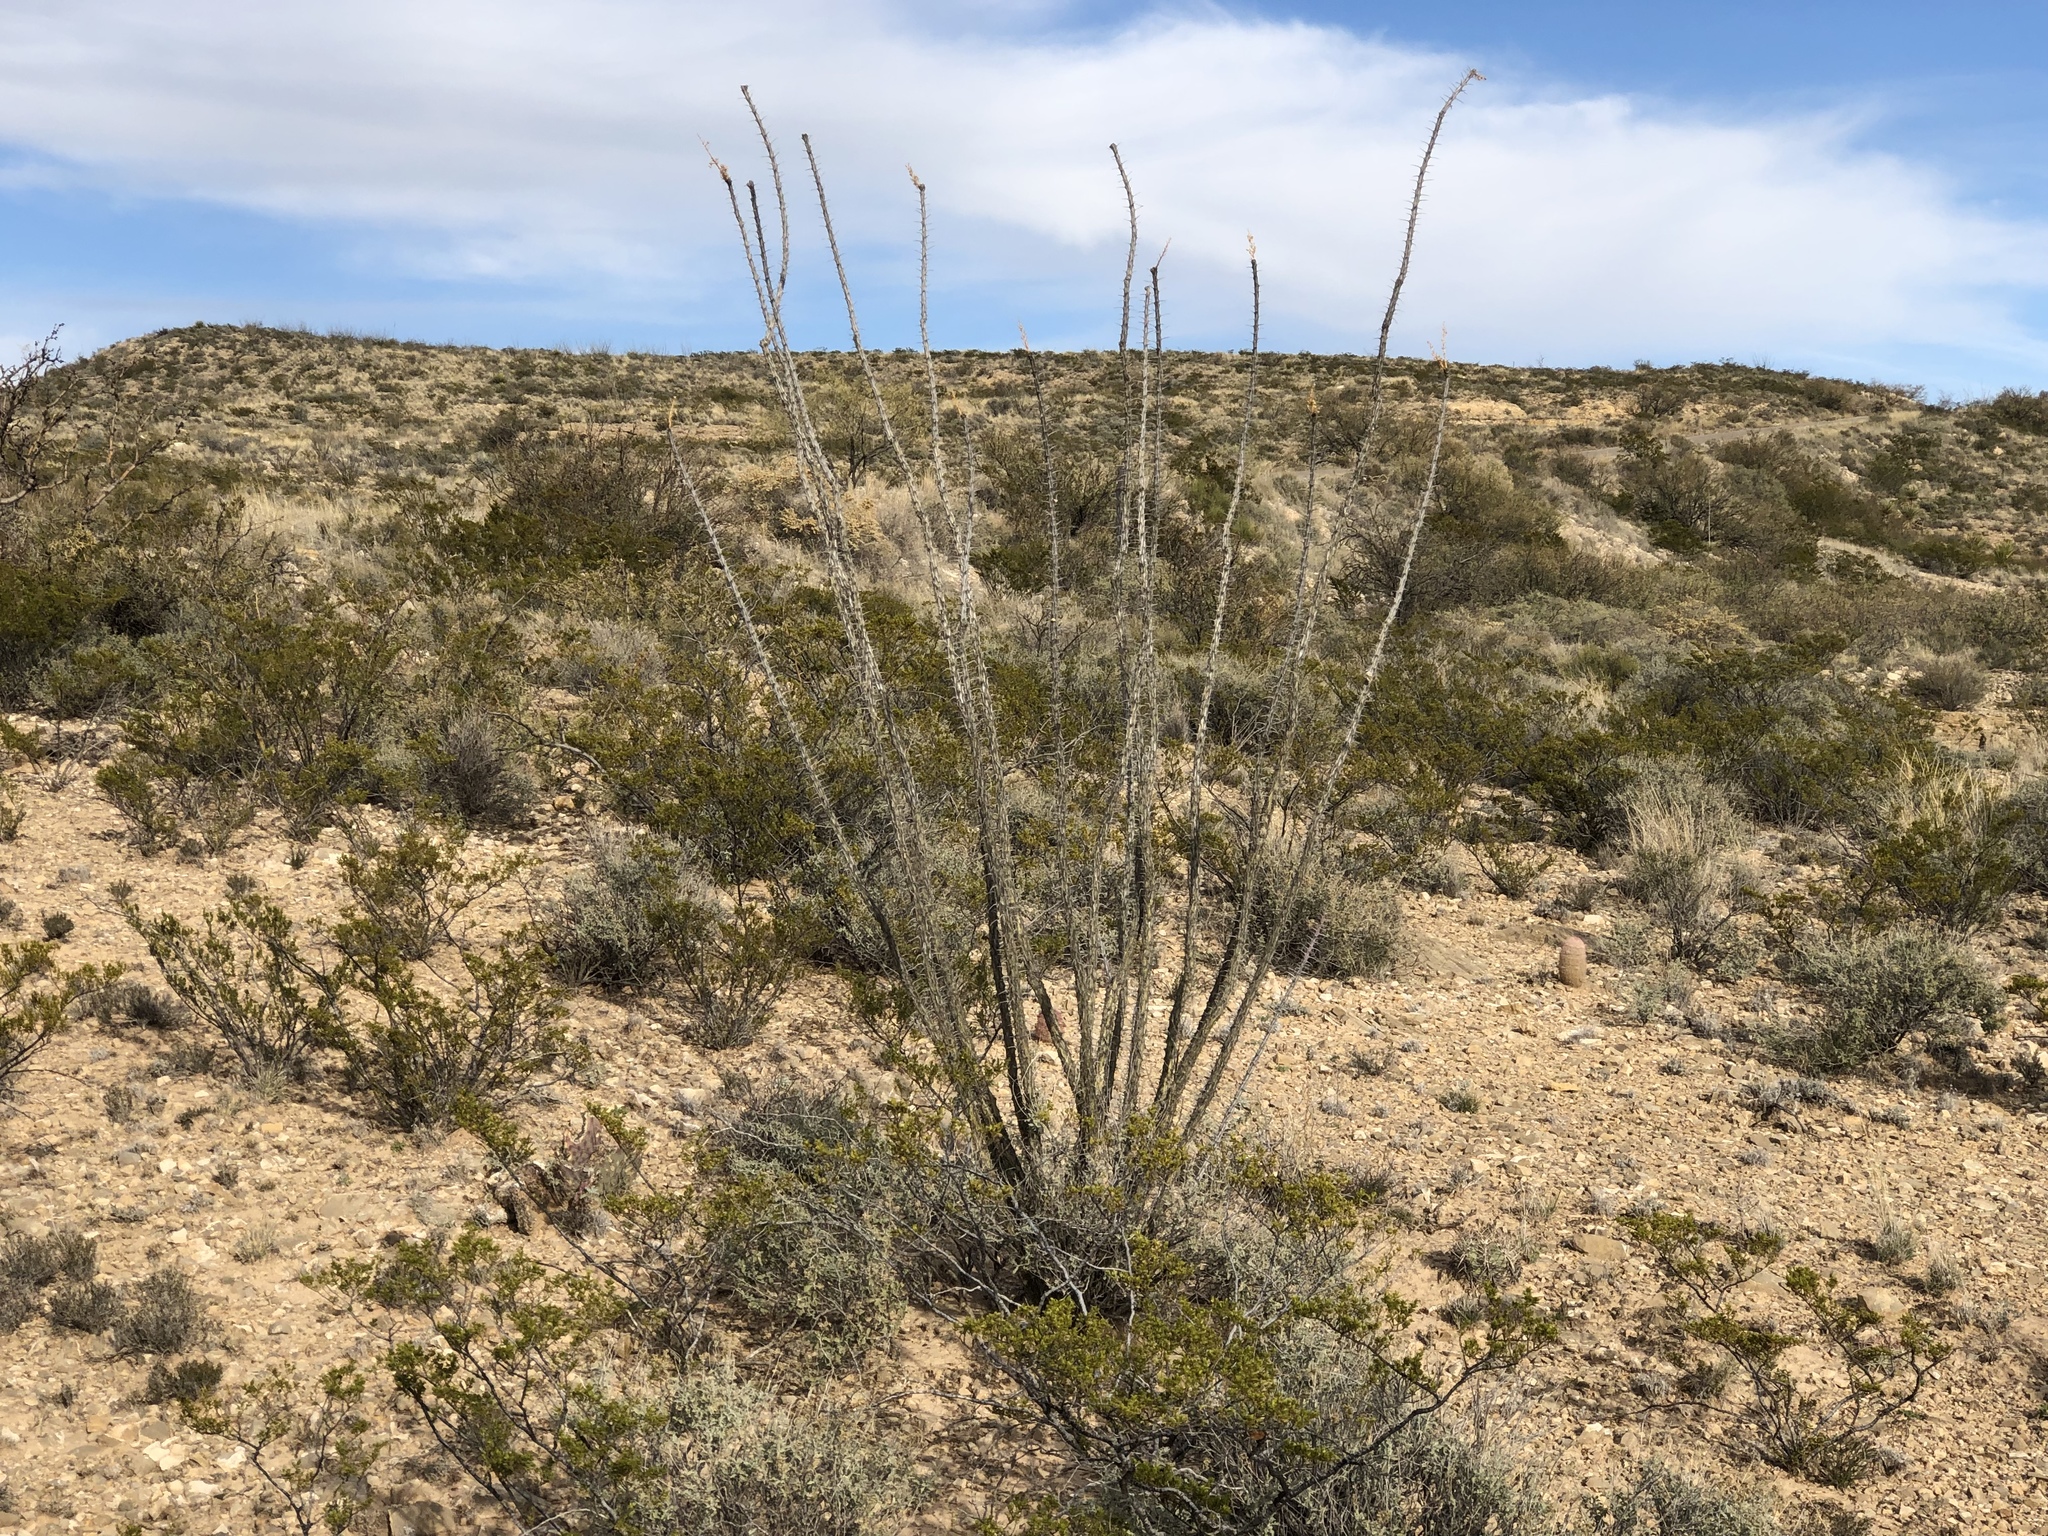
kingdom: Plantae
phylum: Tracheophyta
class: Magnoliopsida
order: Ericales
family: Fouquieriaceae
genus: Fouquieria
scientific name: Fouquieria splendens
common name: Vine-cactus
